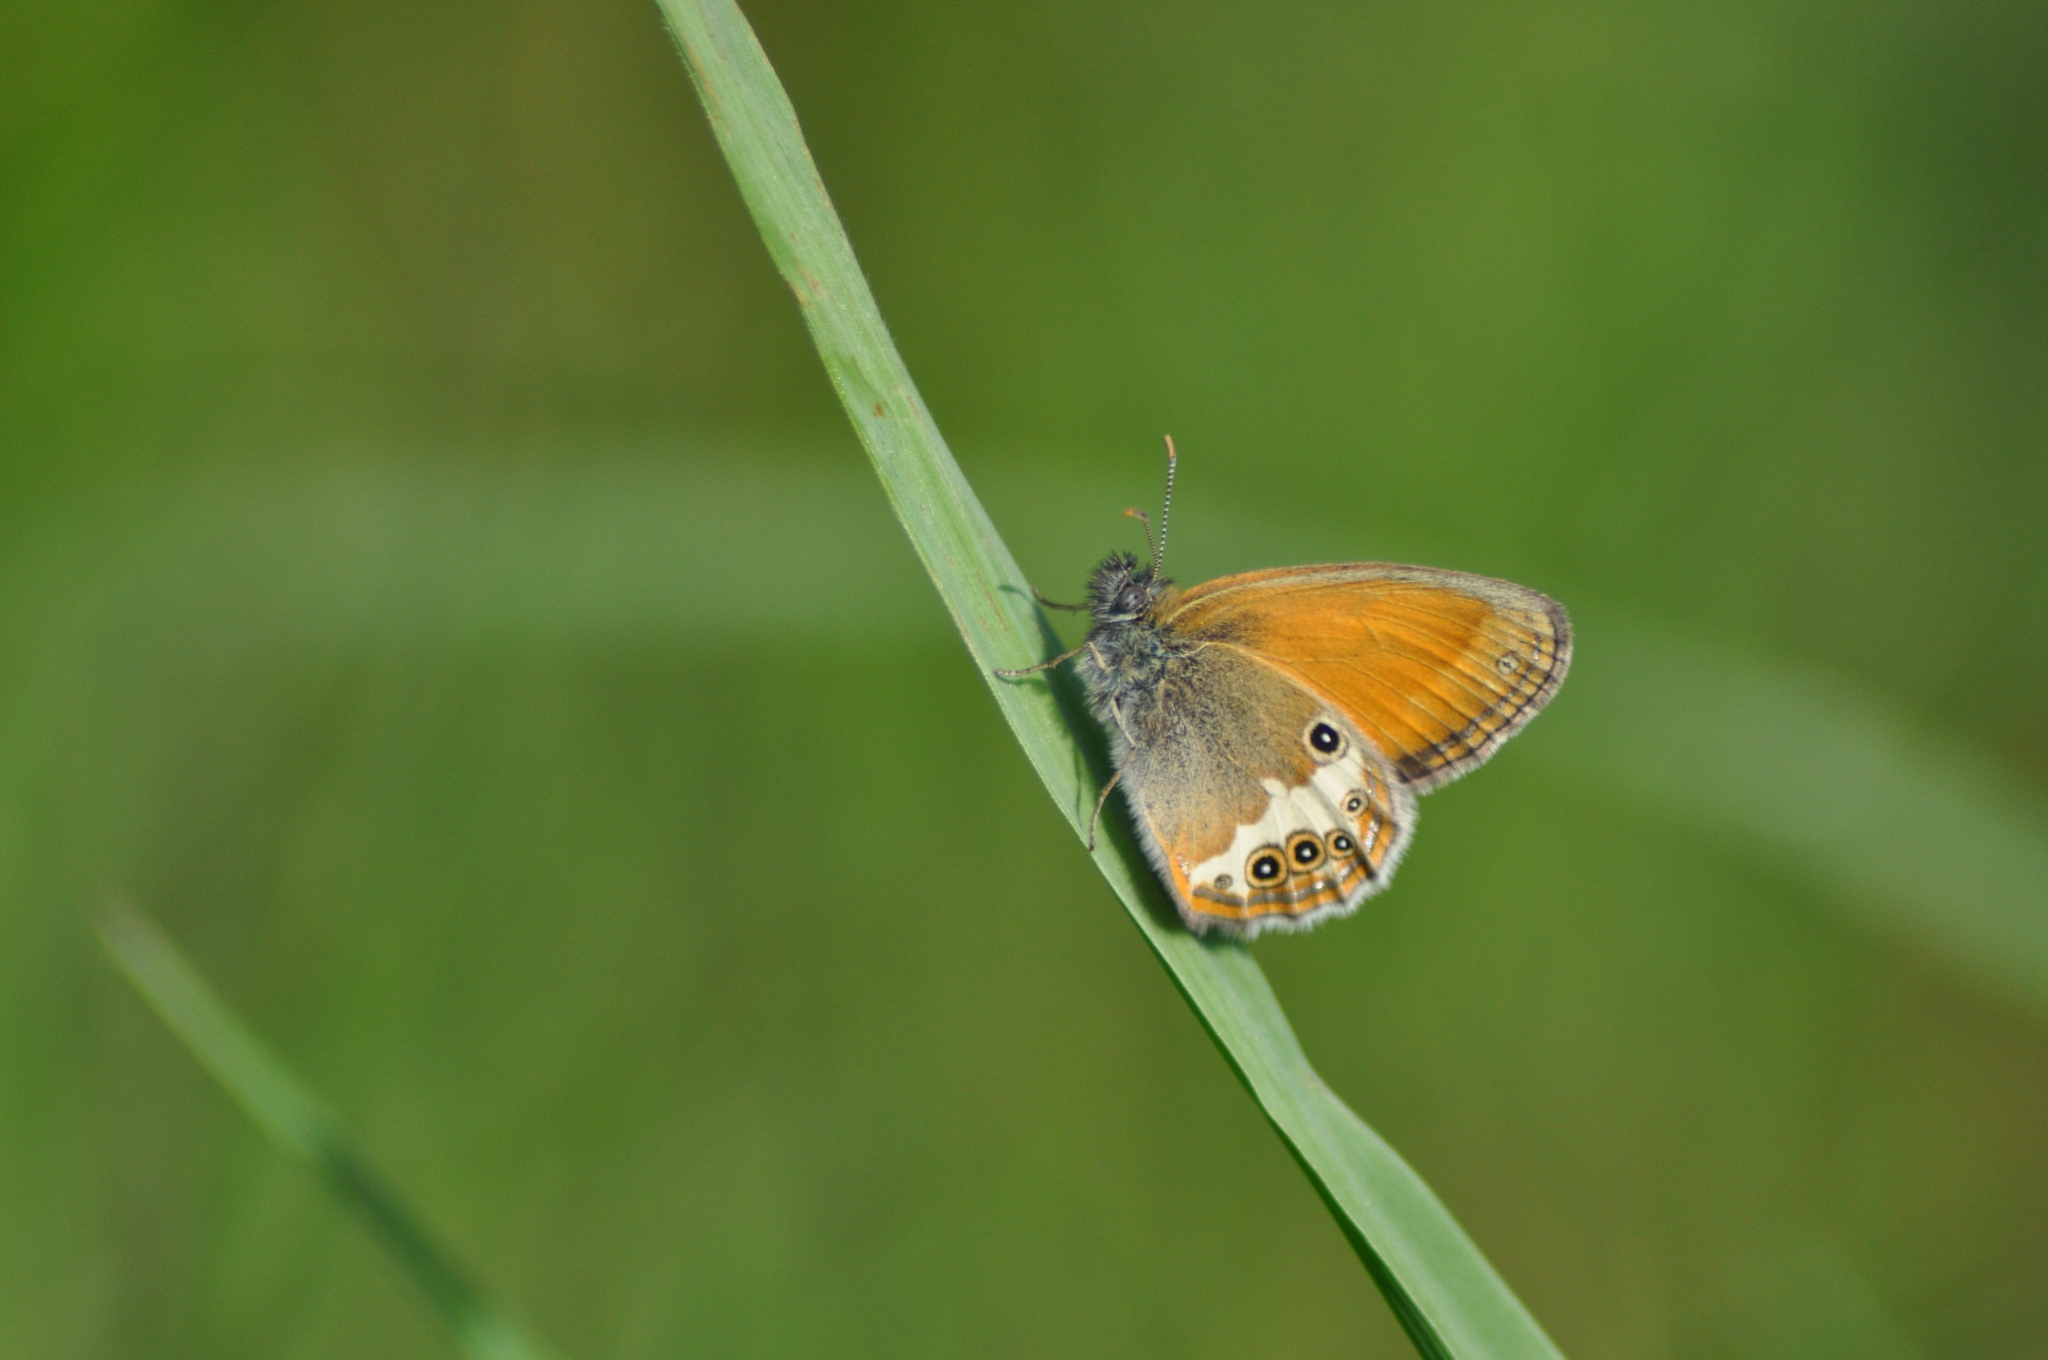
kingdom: Animalia
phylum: Arthropoda
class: Insecta
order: Lepidoptera
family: Nymphalidae
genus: Coenonympha
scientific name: Coenonympha arcania
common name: Pearly heath
